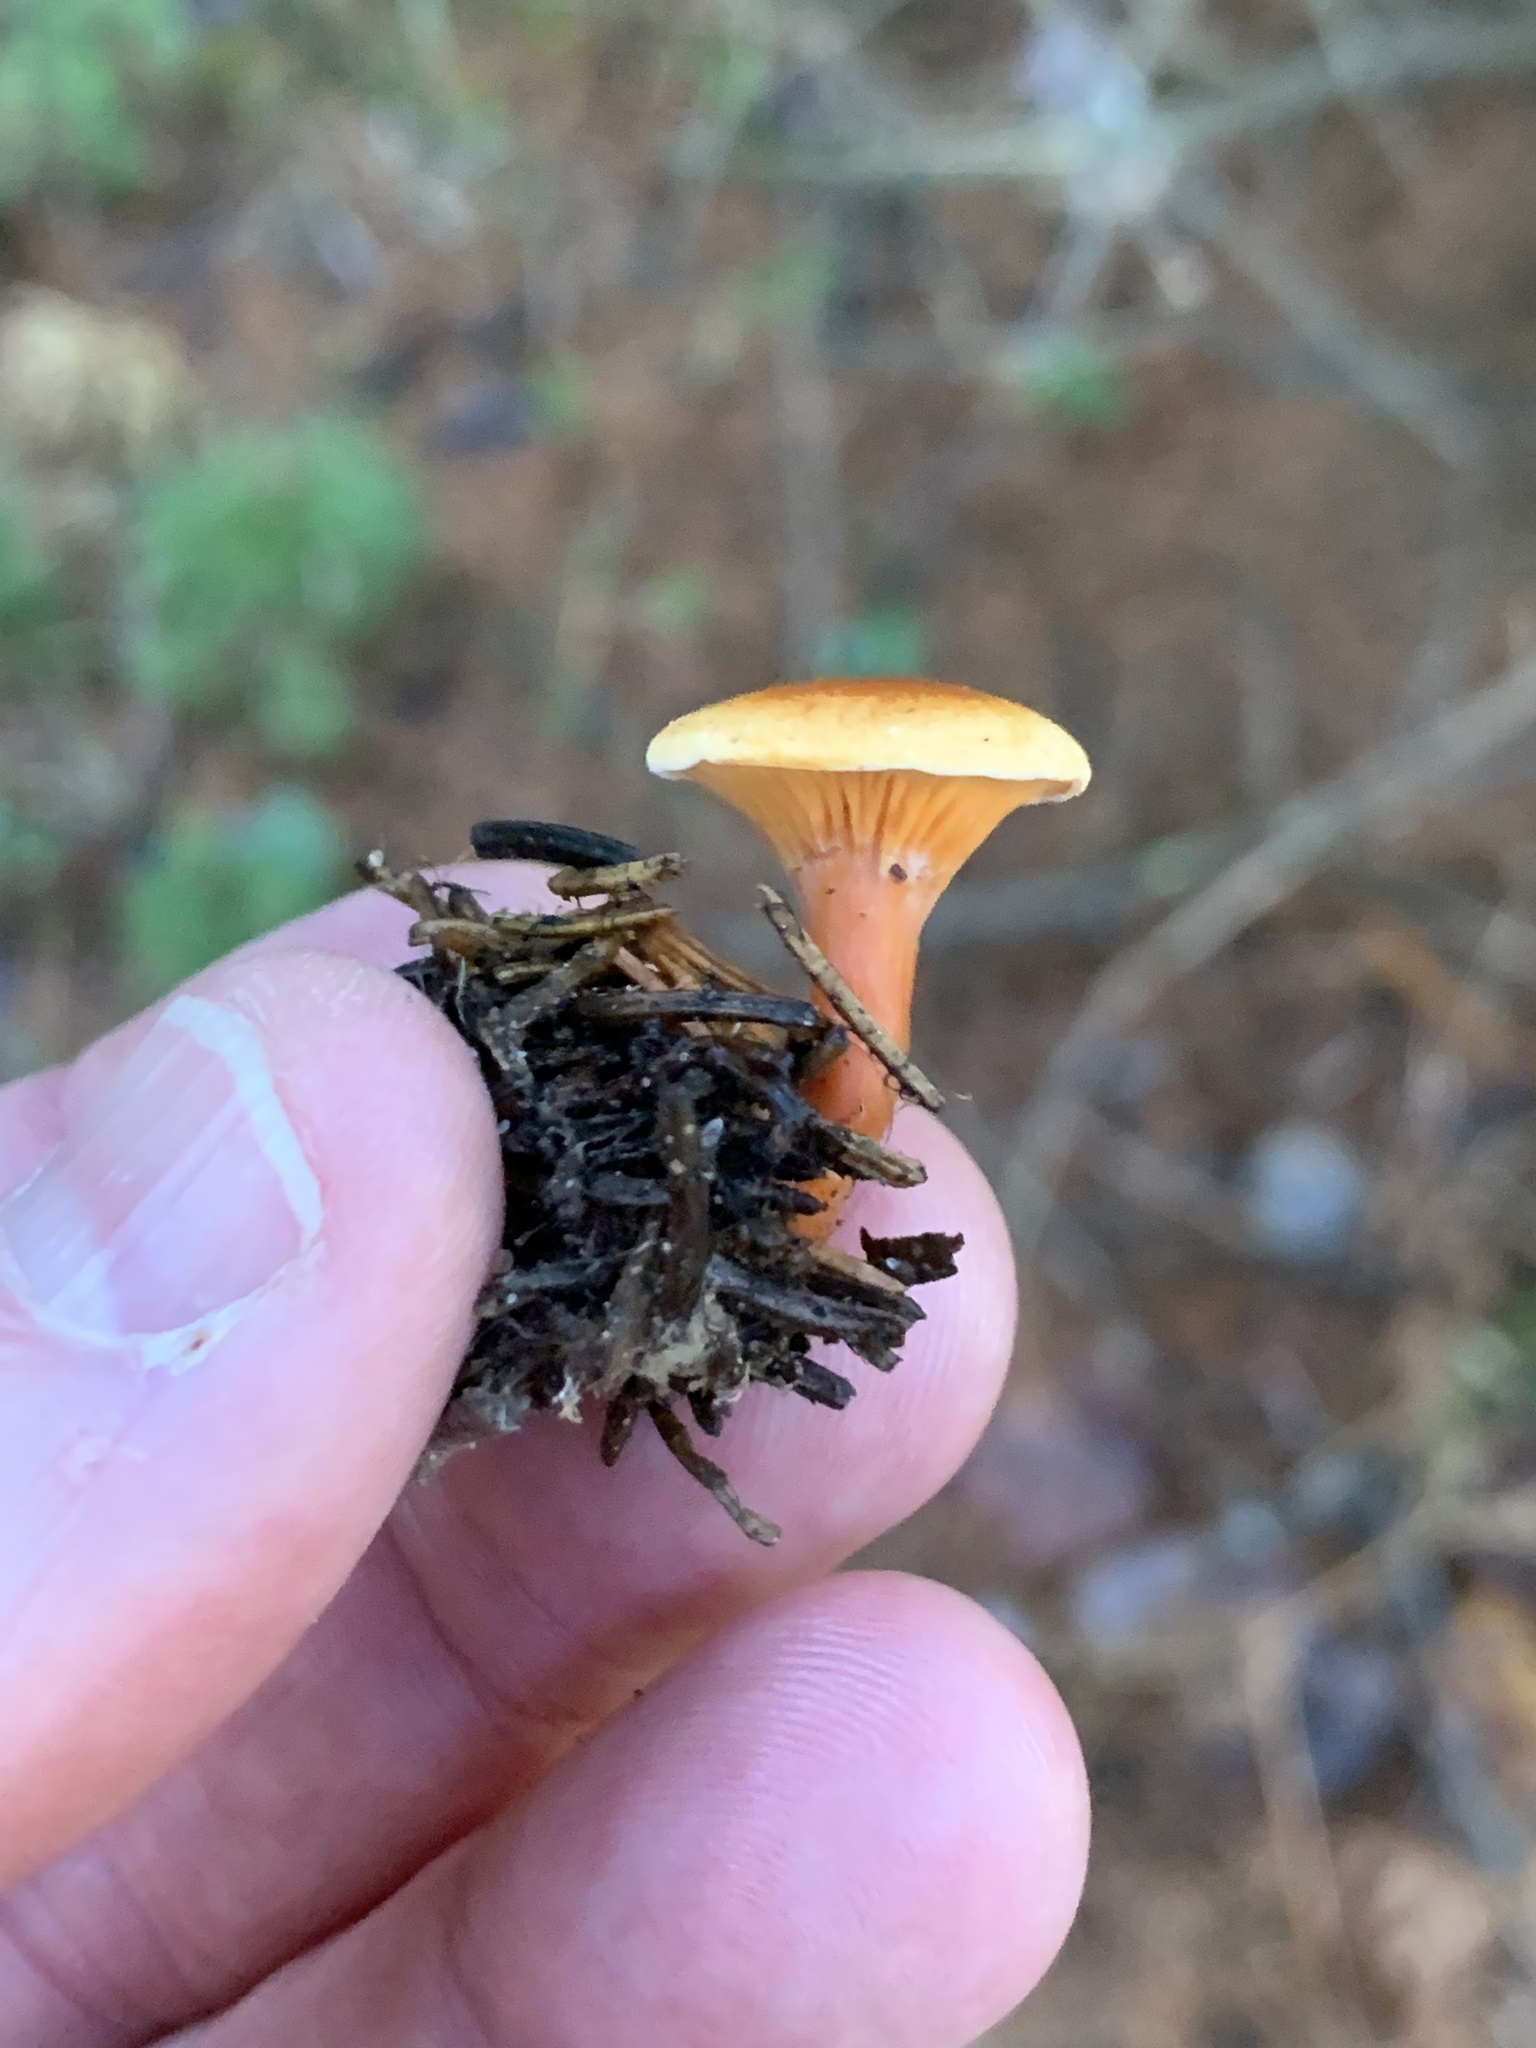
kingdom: Fungi
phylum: Basidiomycota
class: Agaricomycetes
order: Boletales
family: Hygrophoropsidaceae
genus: Hygrophoropsis
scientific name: Hygrophoropsis aurantiaca
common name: False chanterelle
